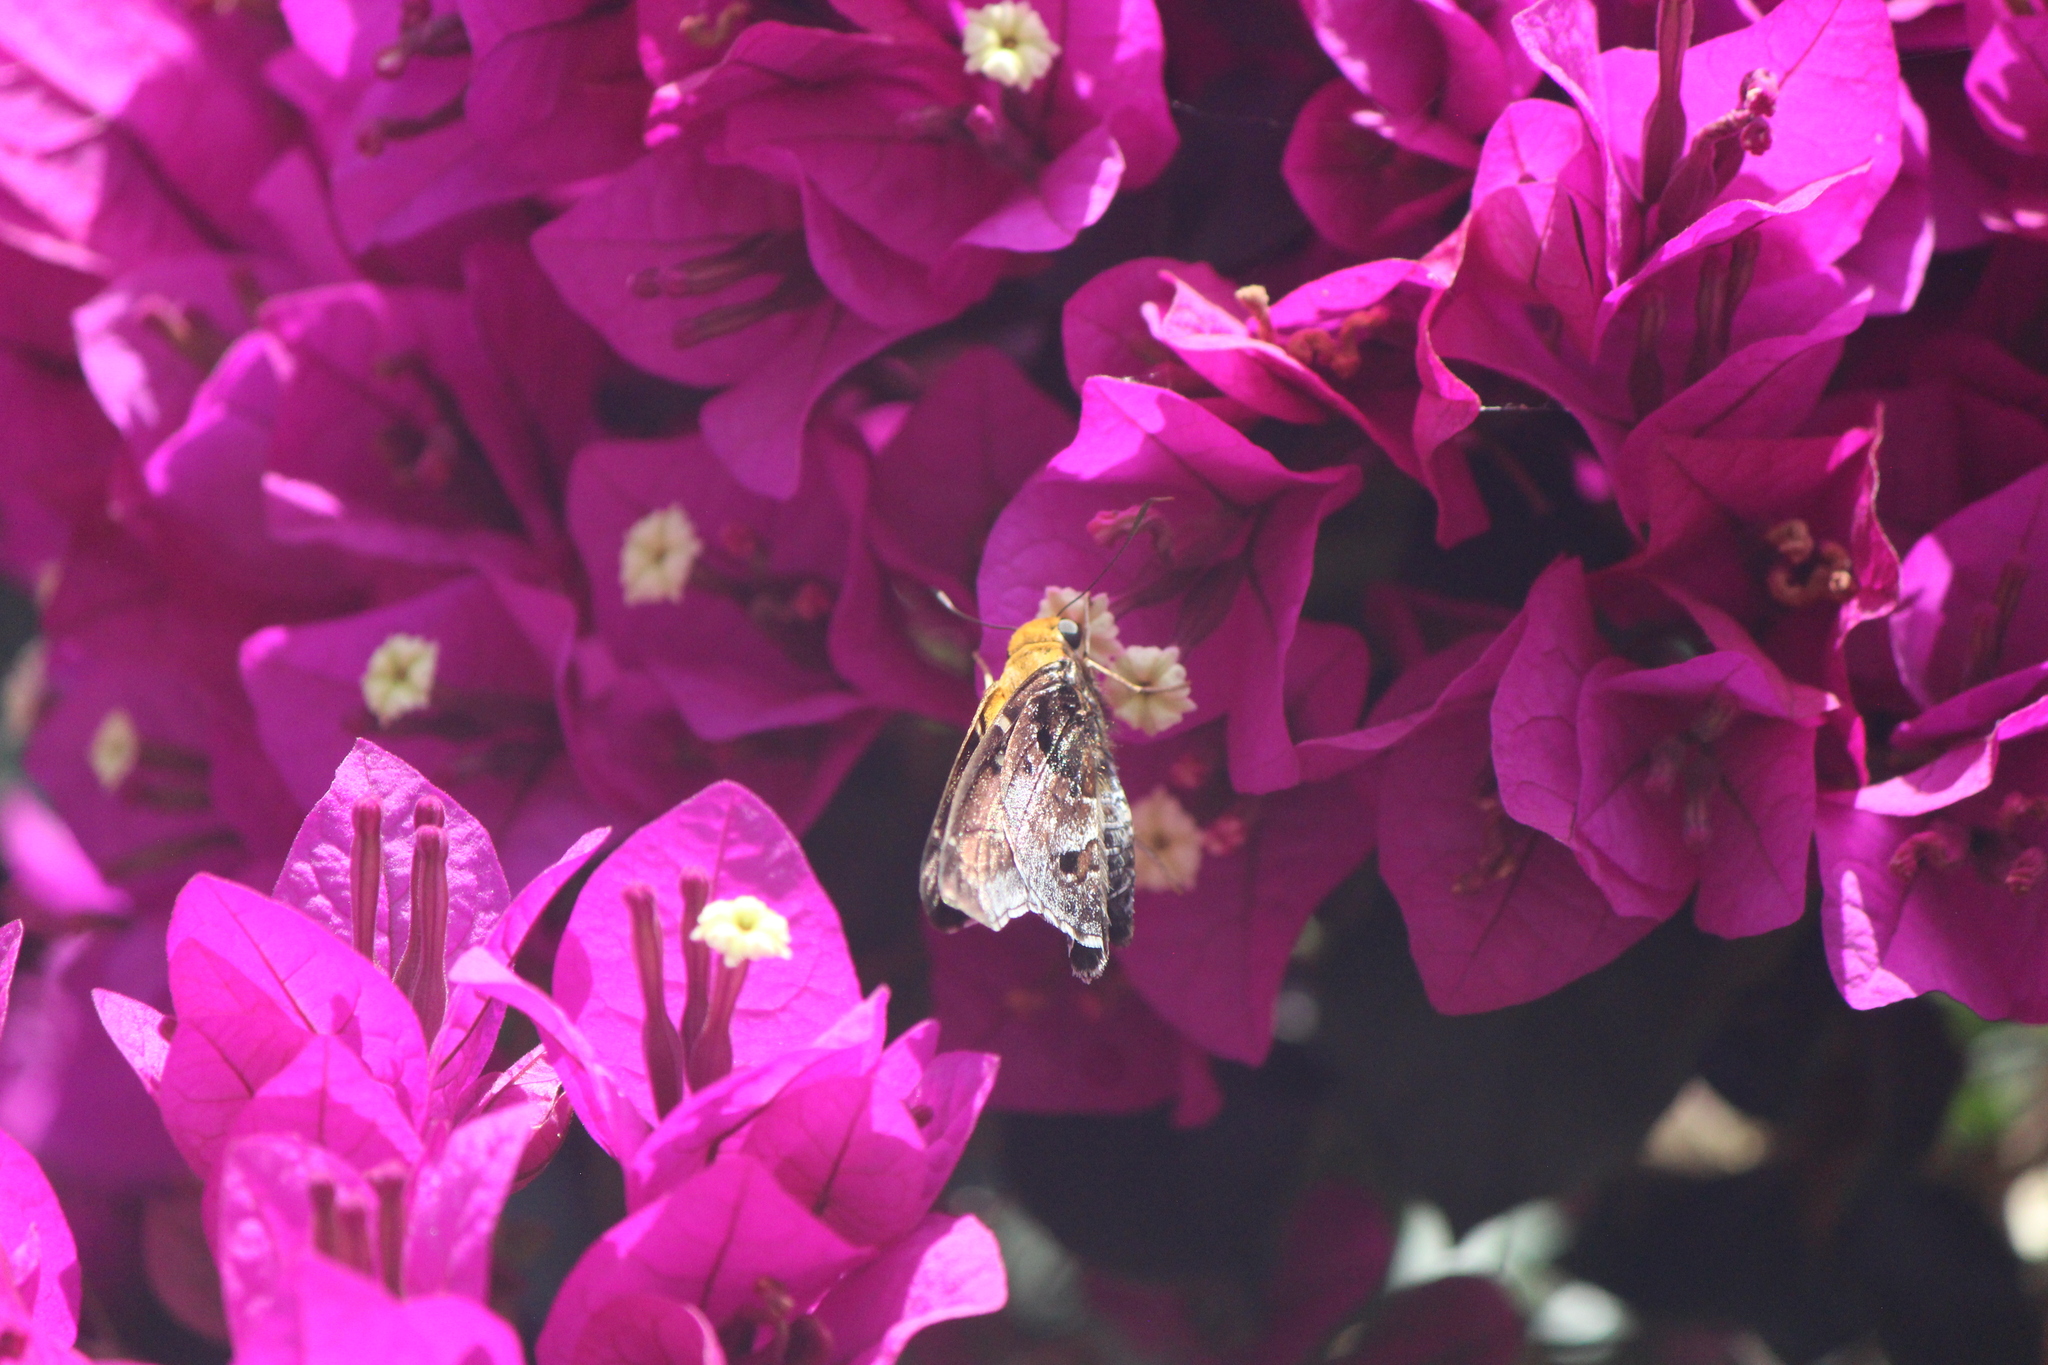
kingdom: Animalia
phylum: Arthropoda
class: Insecta
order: Lepidoptera
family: Hesperiidae
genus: Proteides
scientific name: Proteides mercurius
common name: Mercurial skipper
